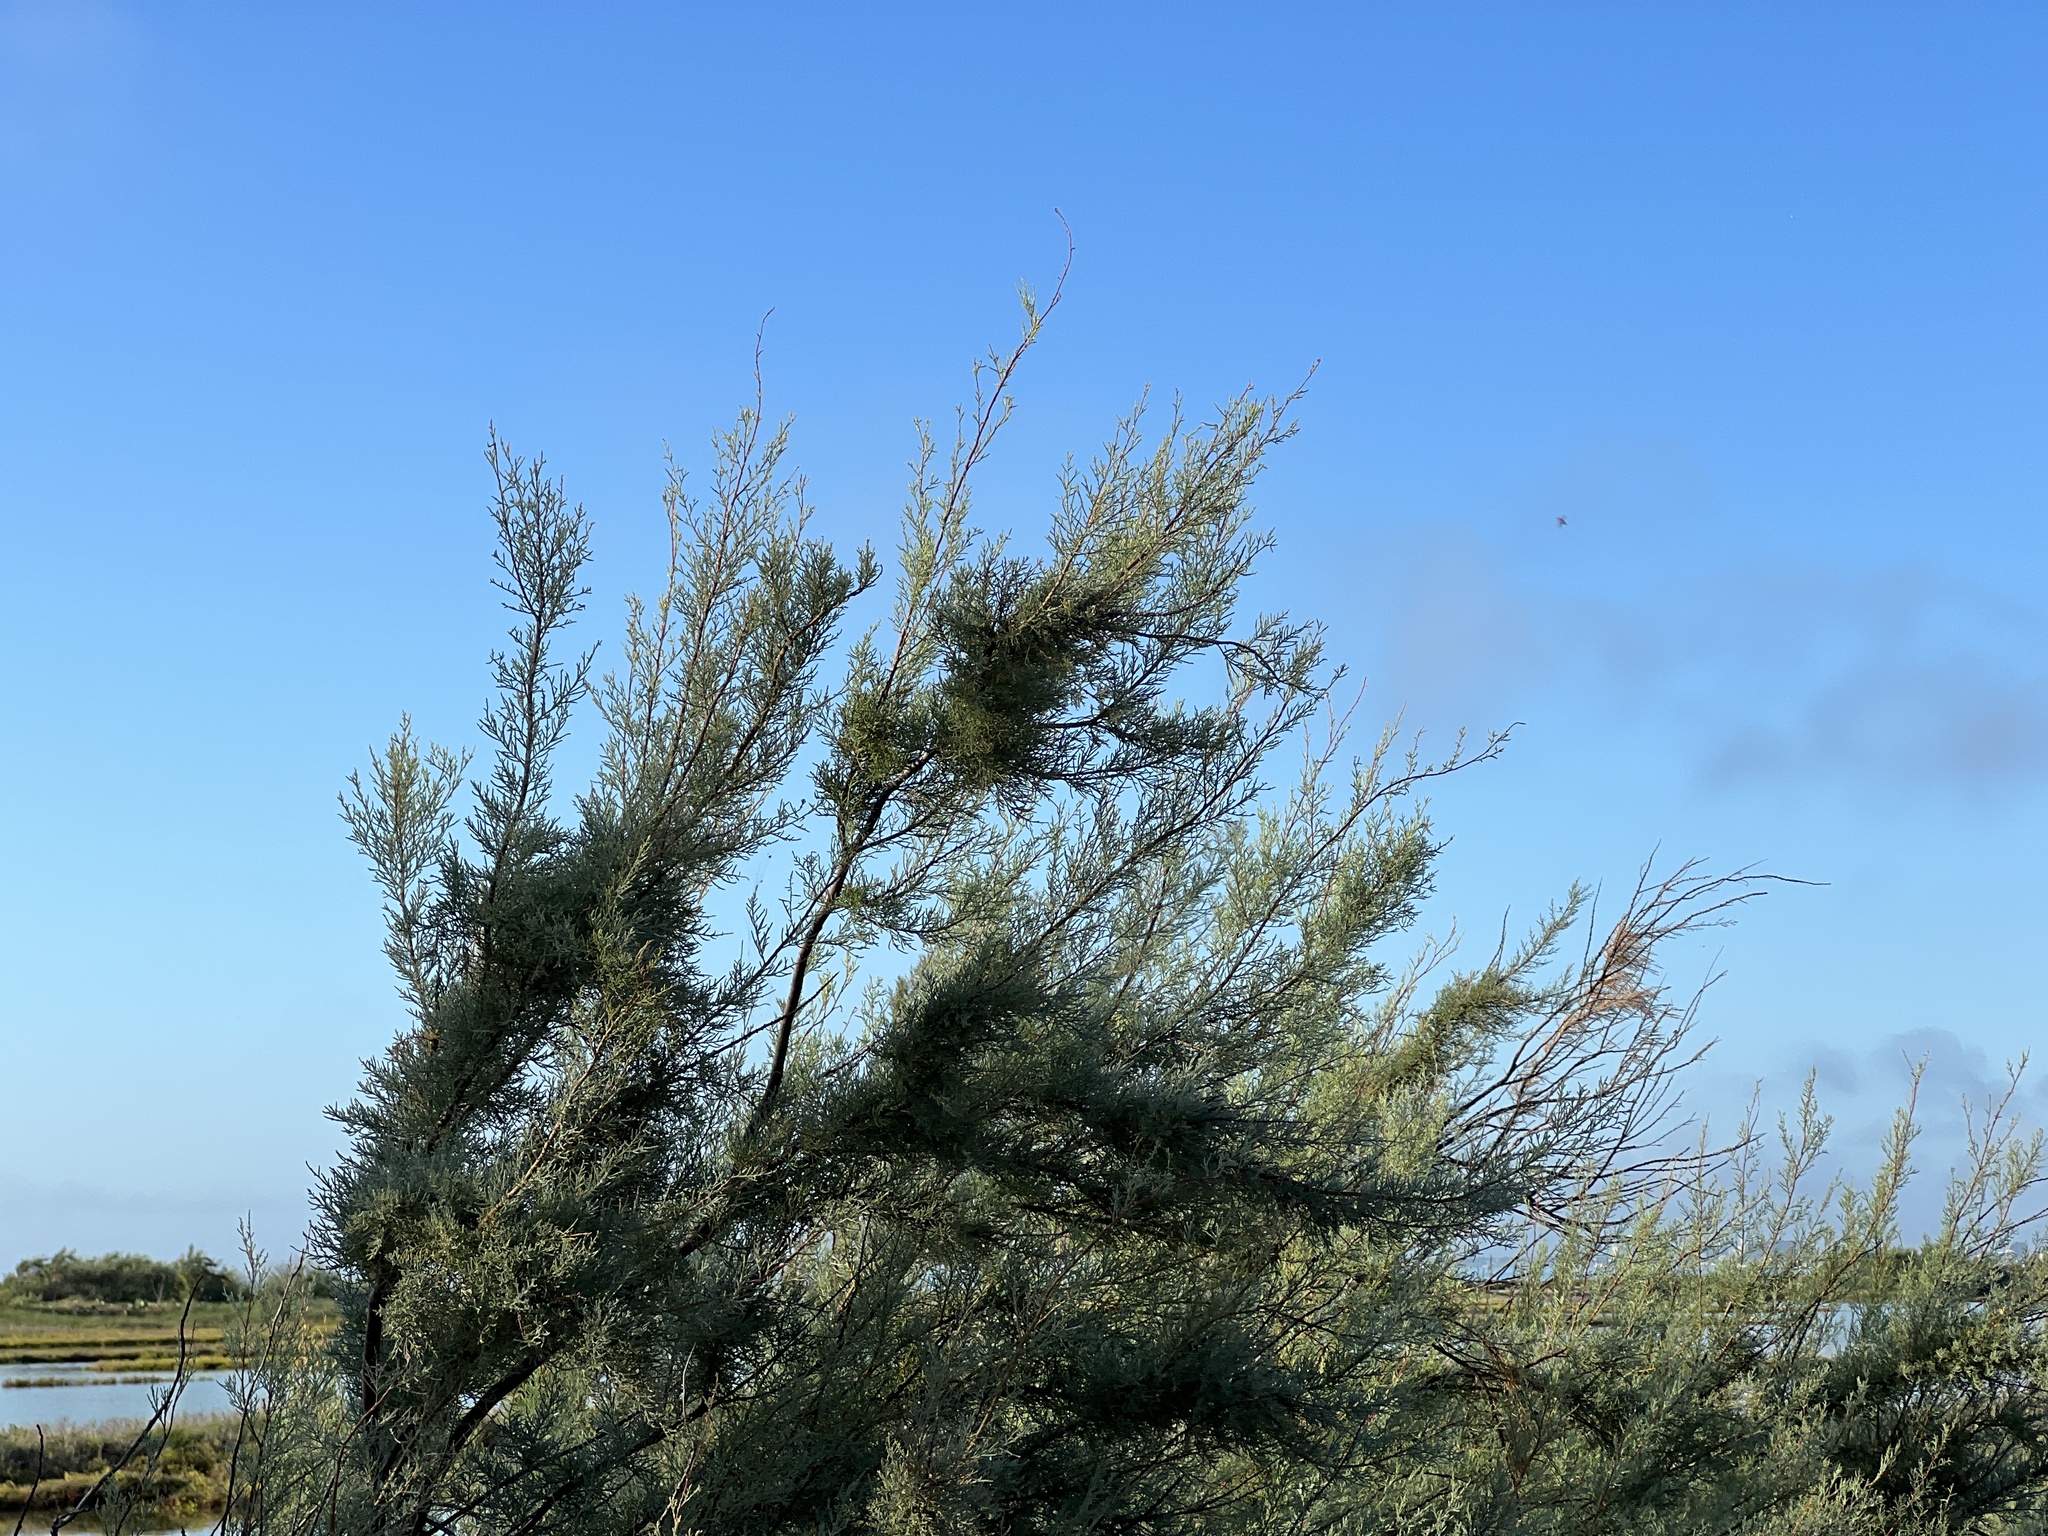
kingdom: Plantae
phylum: Tracheophyta
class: Magnoliopsida
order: Caryophyllales
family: Tamaricaceae
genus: Tamarix
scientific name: Tamarix
